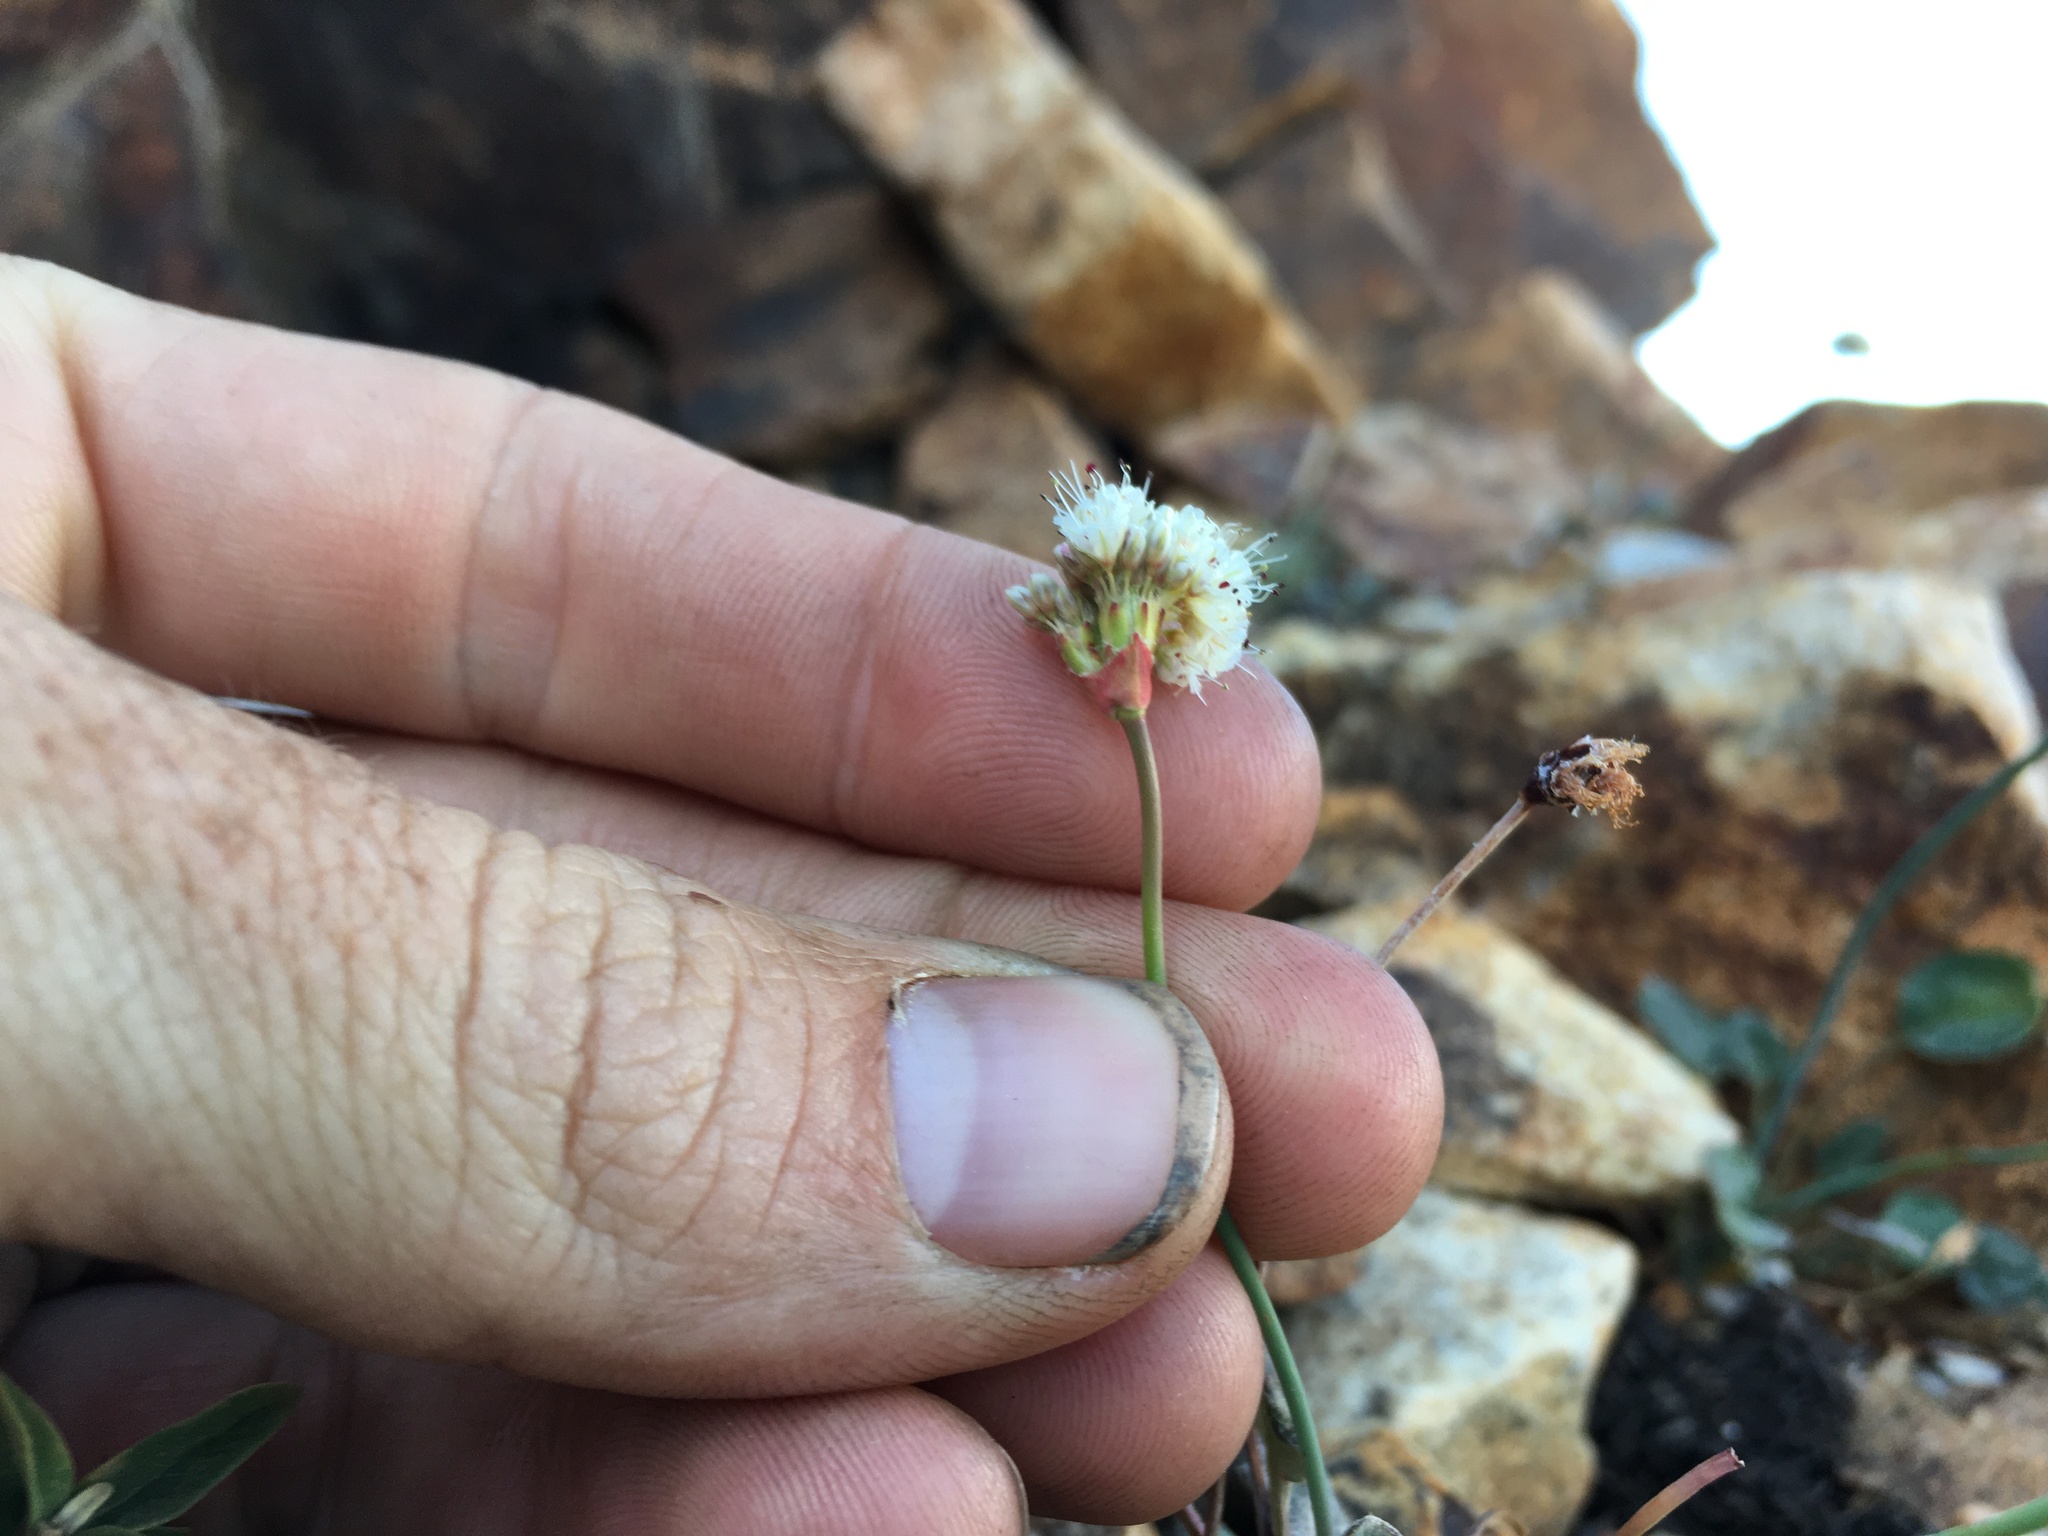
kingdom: Plantae
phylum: Tracheophyta
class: Magnoliopsida
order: Caryophyllales
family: Polygonaceae
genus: Eriogonum
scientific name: Eriogonum nudum
